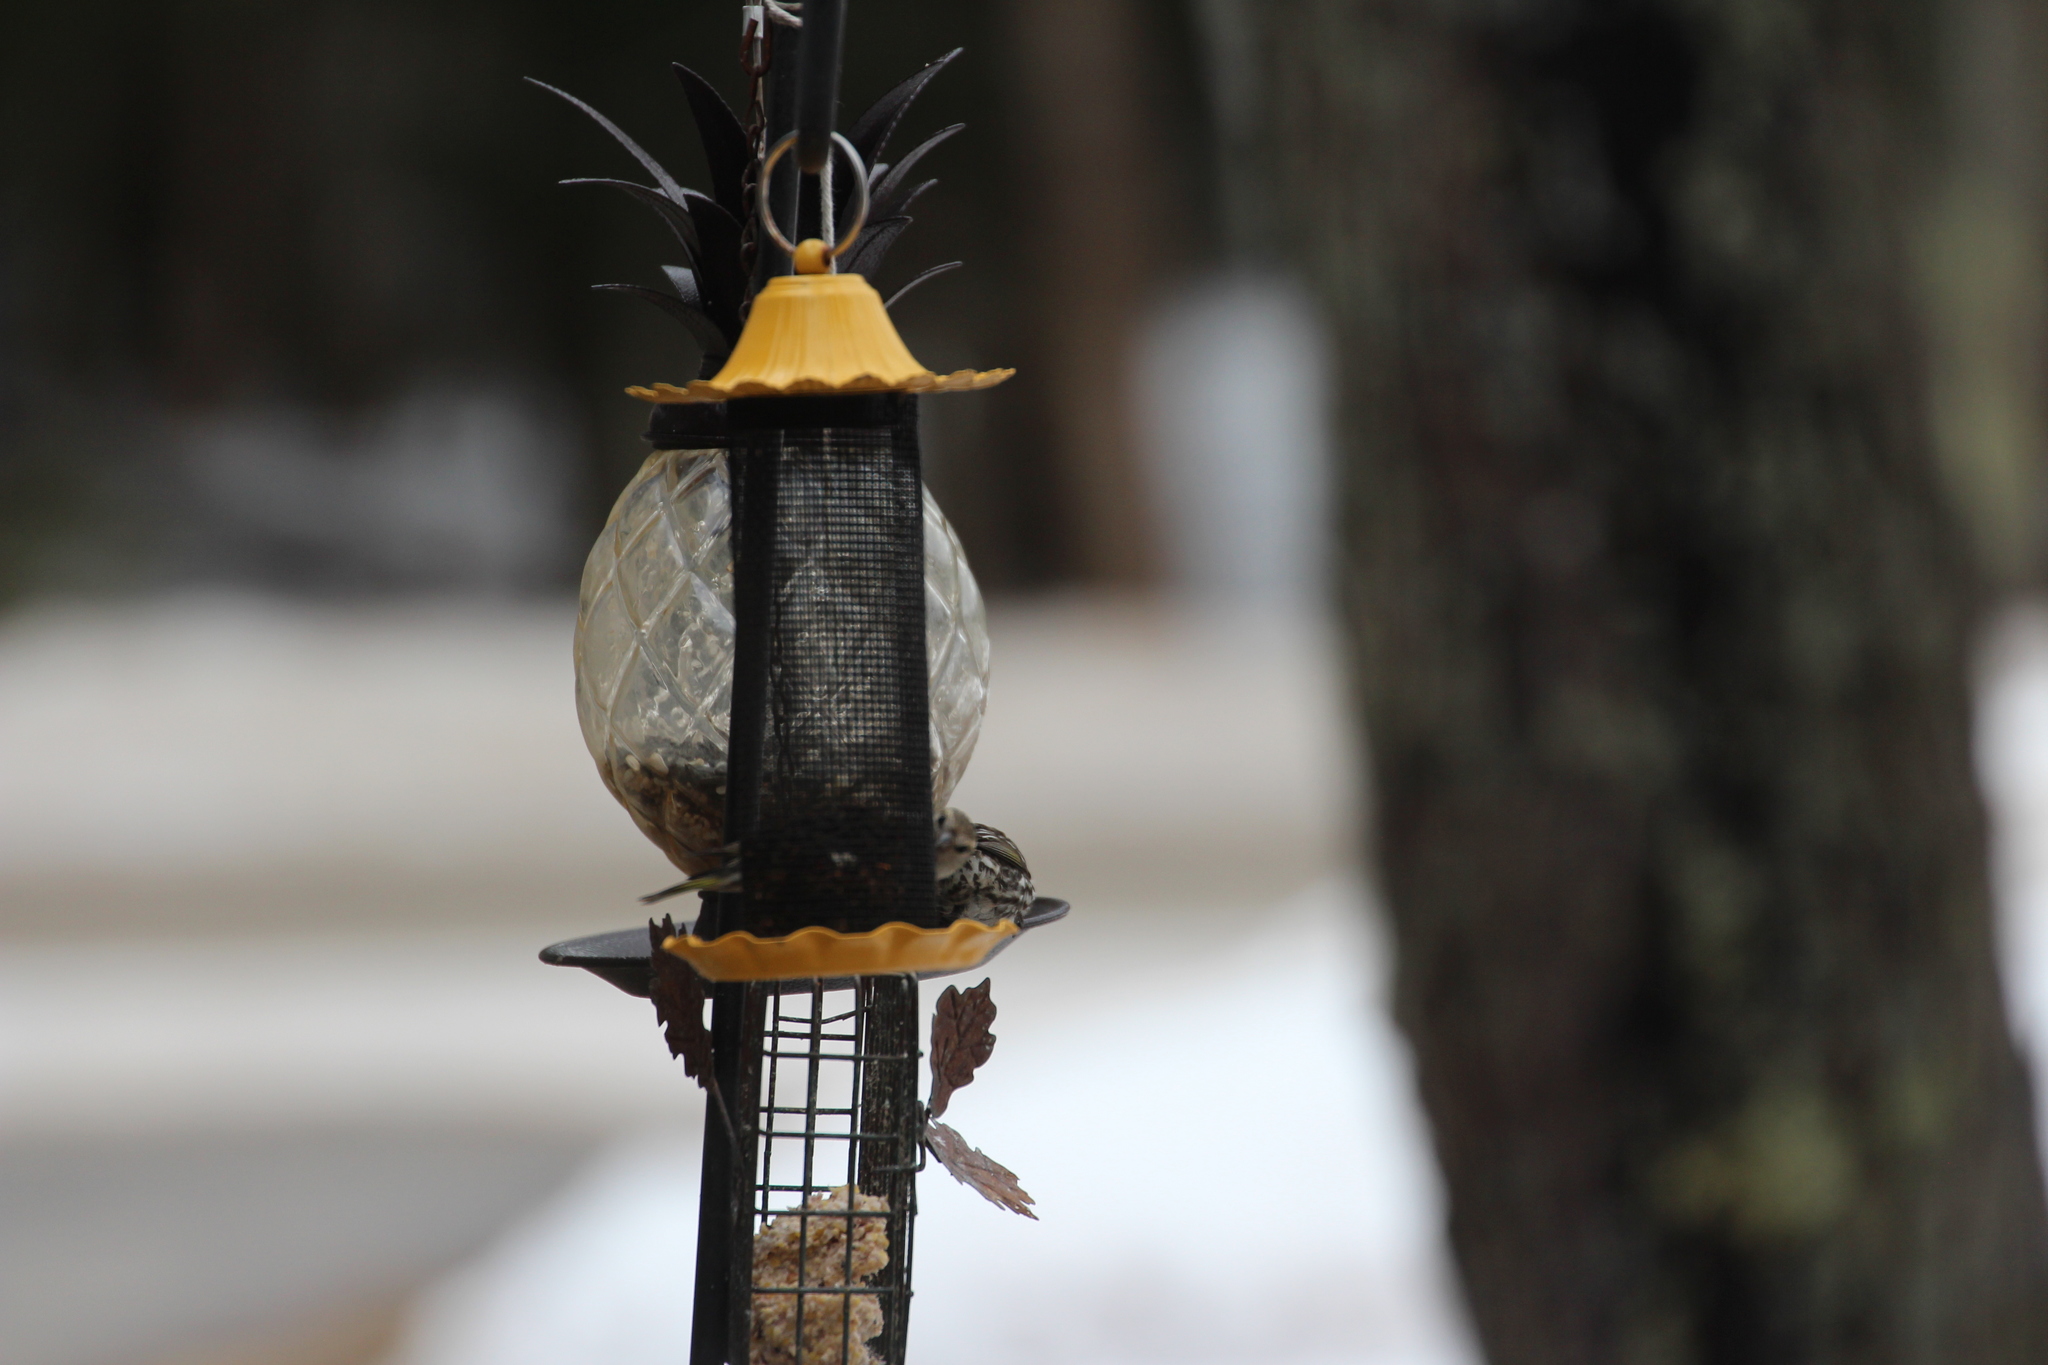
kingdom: Animalia
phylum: Chordata
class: Aves
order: Passeriformes
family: Fringillidae
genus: Spinus
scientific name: Spinus pinus
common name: Pine siskin
